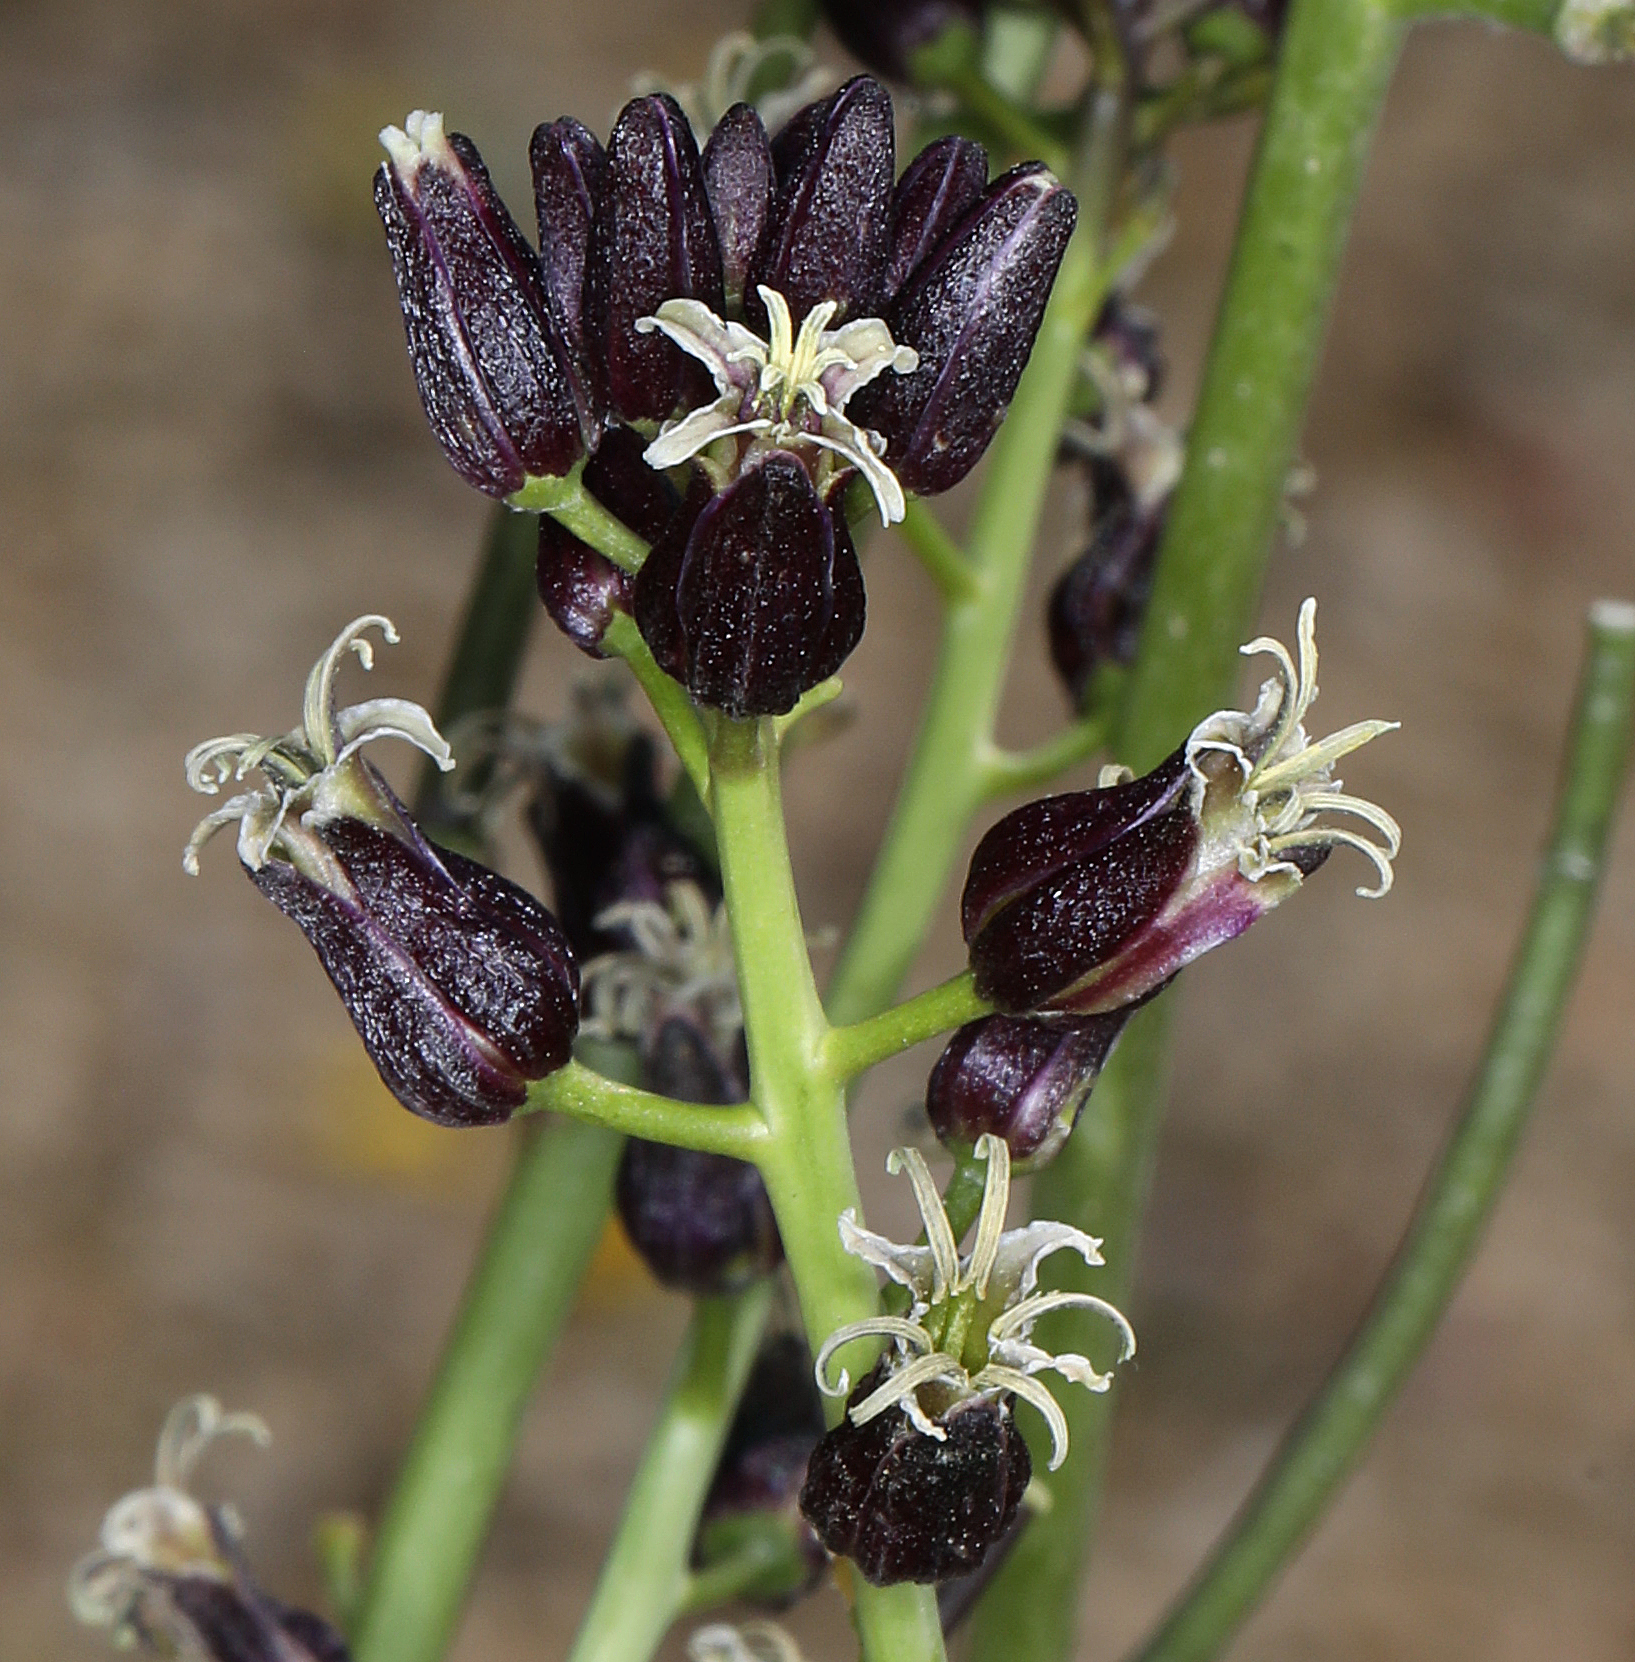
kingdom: Plantae
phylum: Tracheophyta
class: Magnoliopsida
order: Brassicales
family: Brassicaceae
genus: Streptanthus
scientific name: Streptanthus pilosus
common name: Chocolate drops
